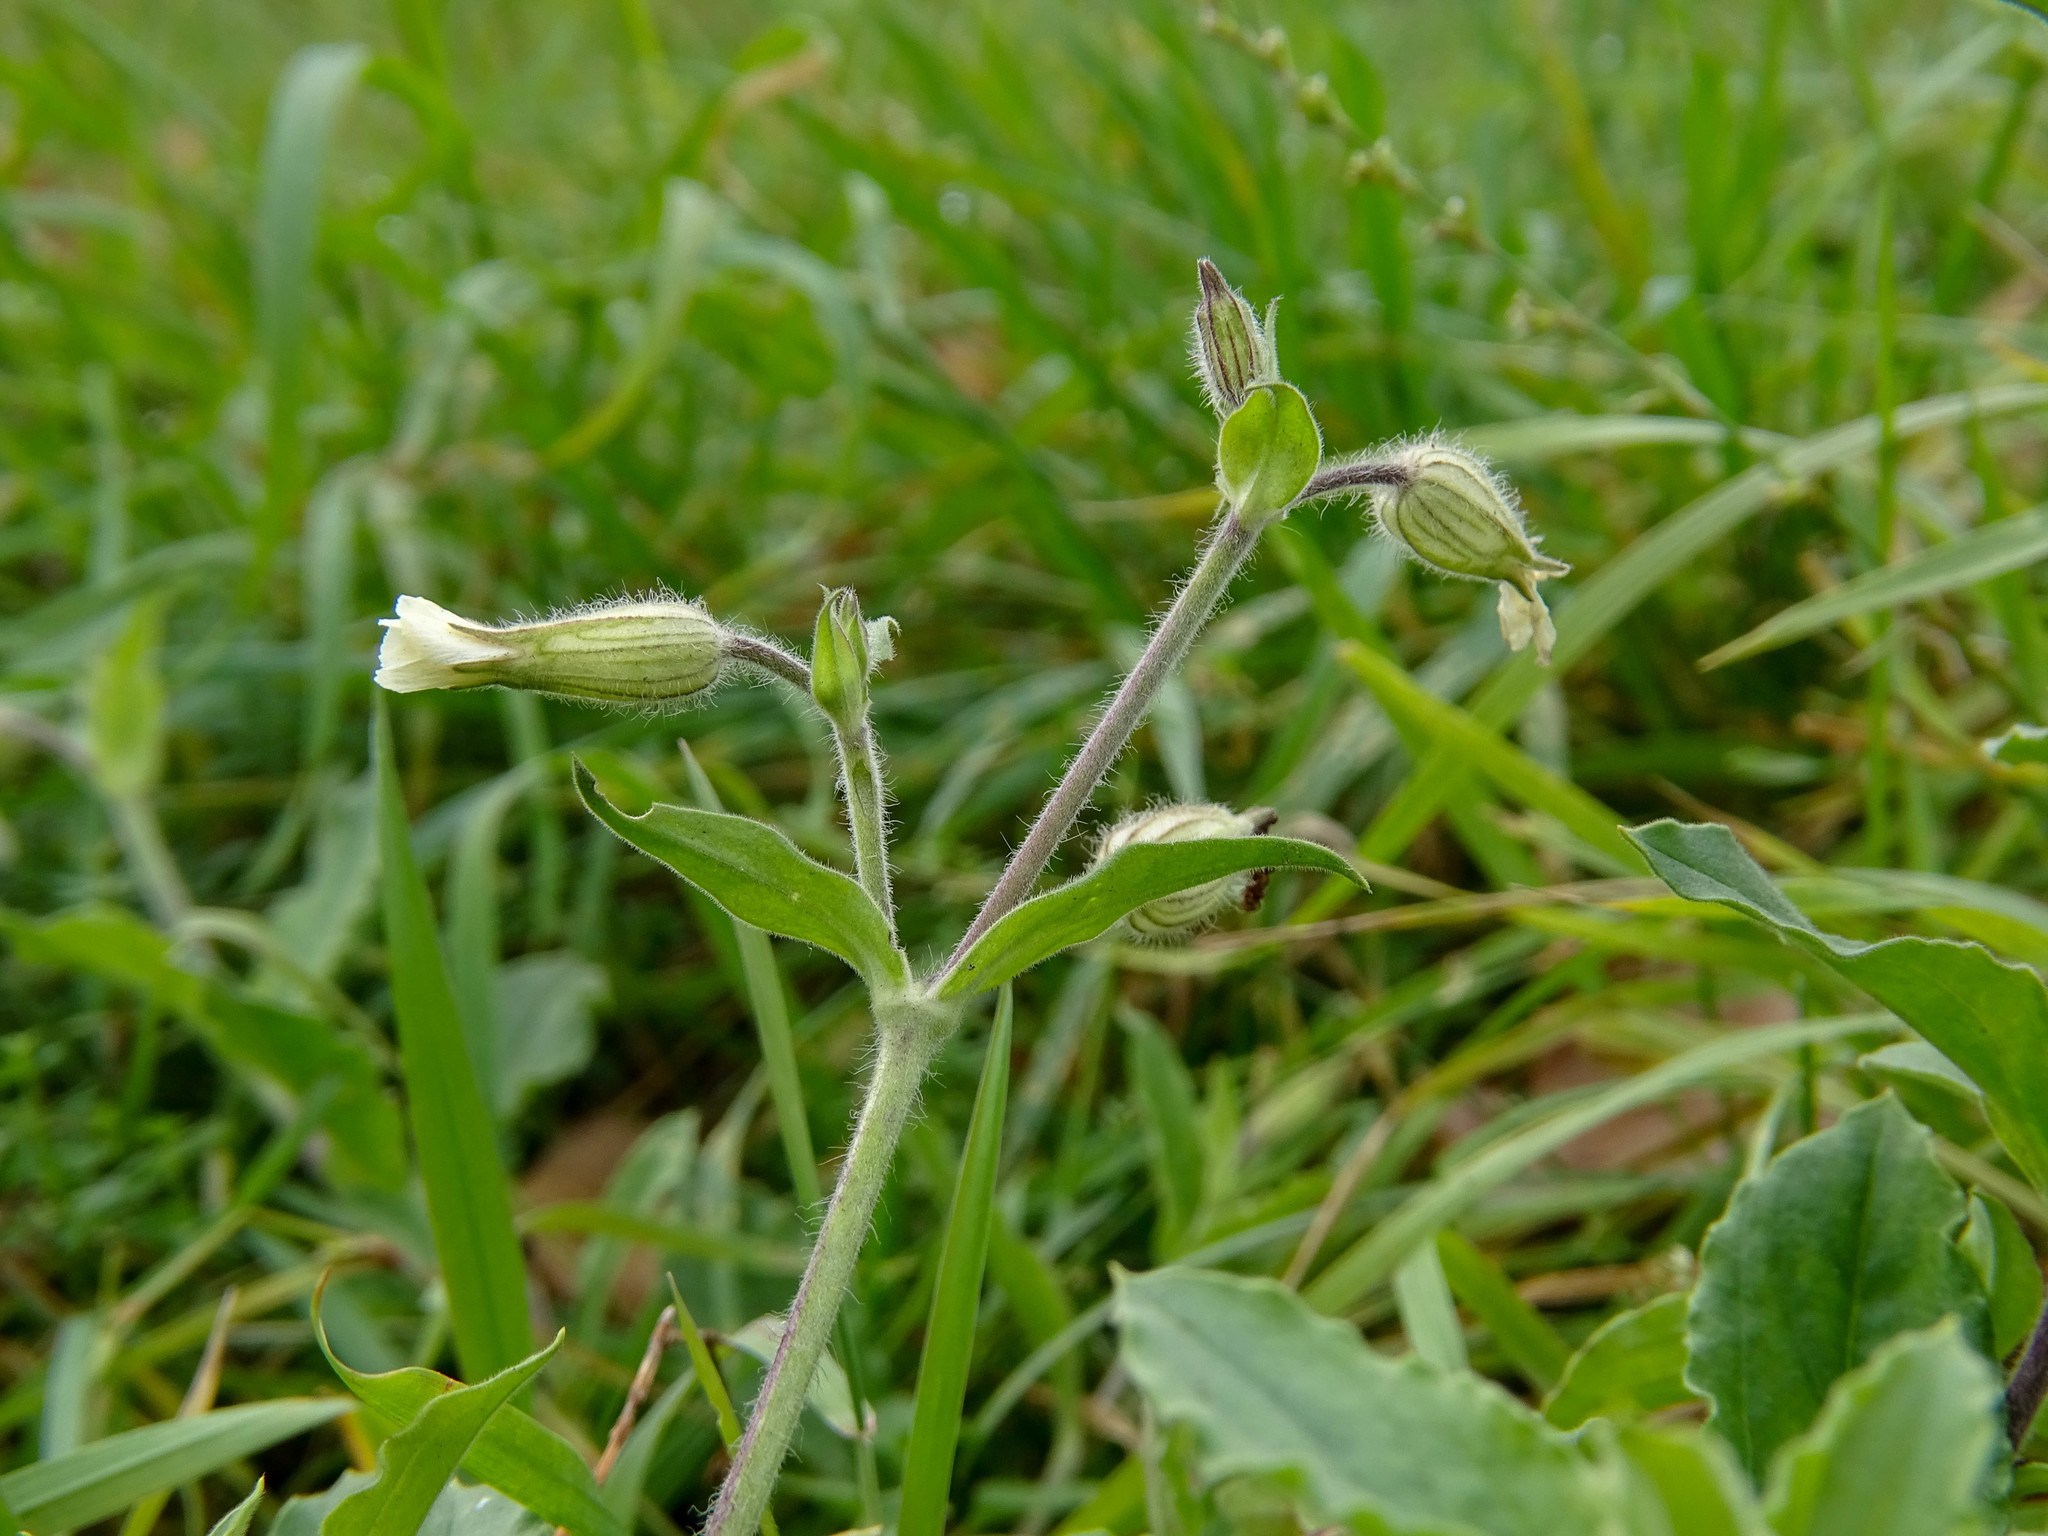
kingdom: Plantae
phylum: Tracheophyta
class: Magnoliopsida
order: Caryophyllales
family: Caryophyllaceae
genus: Silene
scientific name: Silene latifolia
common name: White campion
